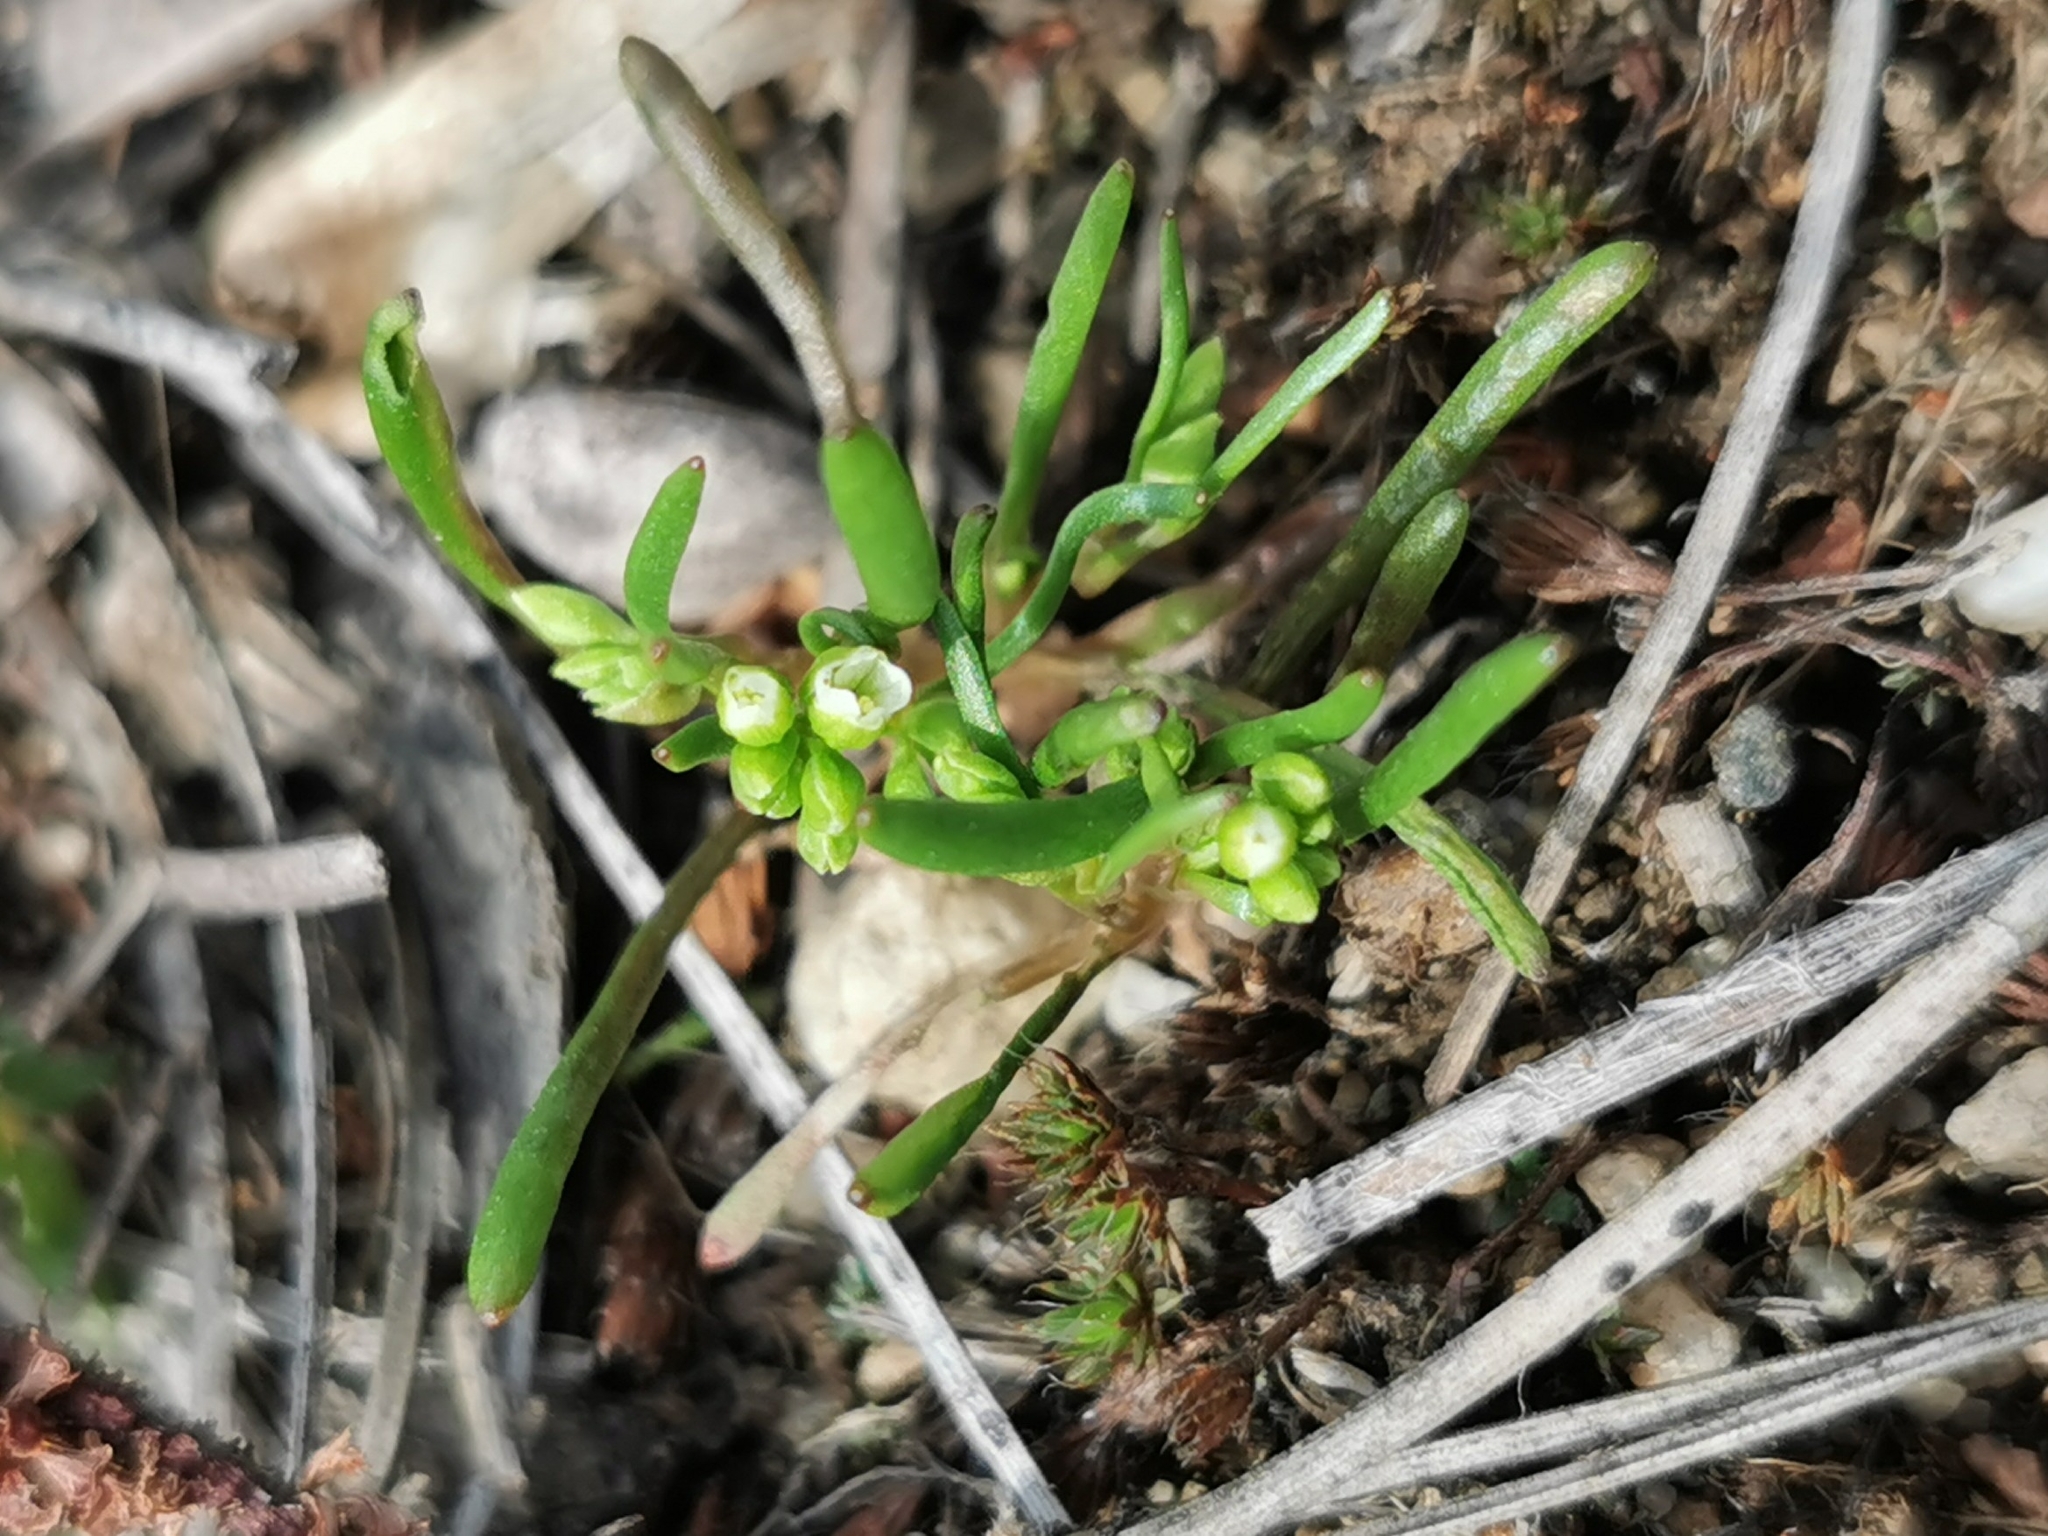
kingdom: Plantae
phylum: Tracheophyta
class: Magnoliopsida
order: Caryophyllales
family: Montiaceae
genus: Montia
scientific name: Montia linearis
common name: Narrow-leaf montia
